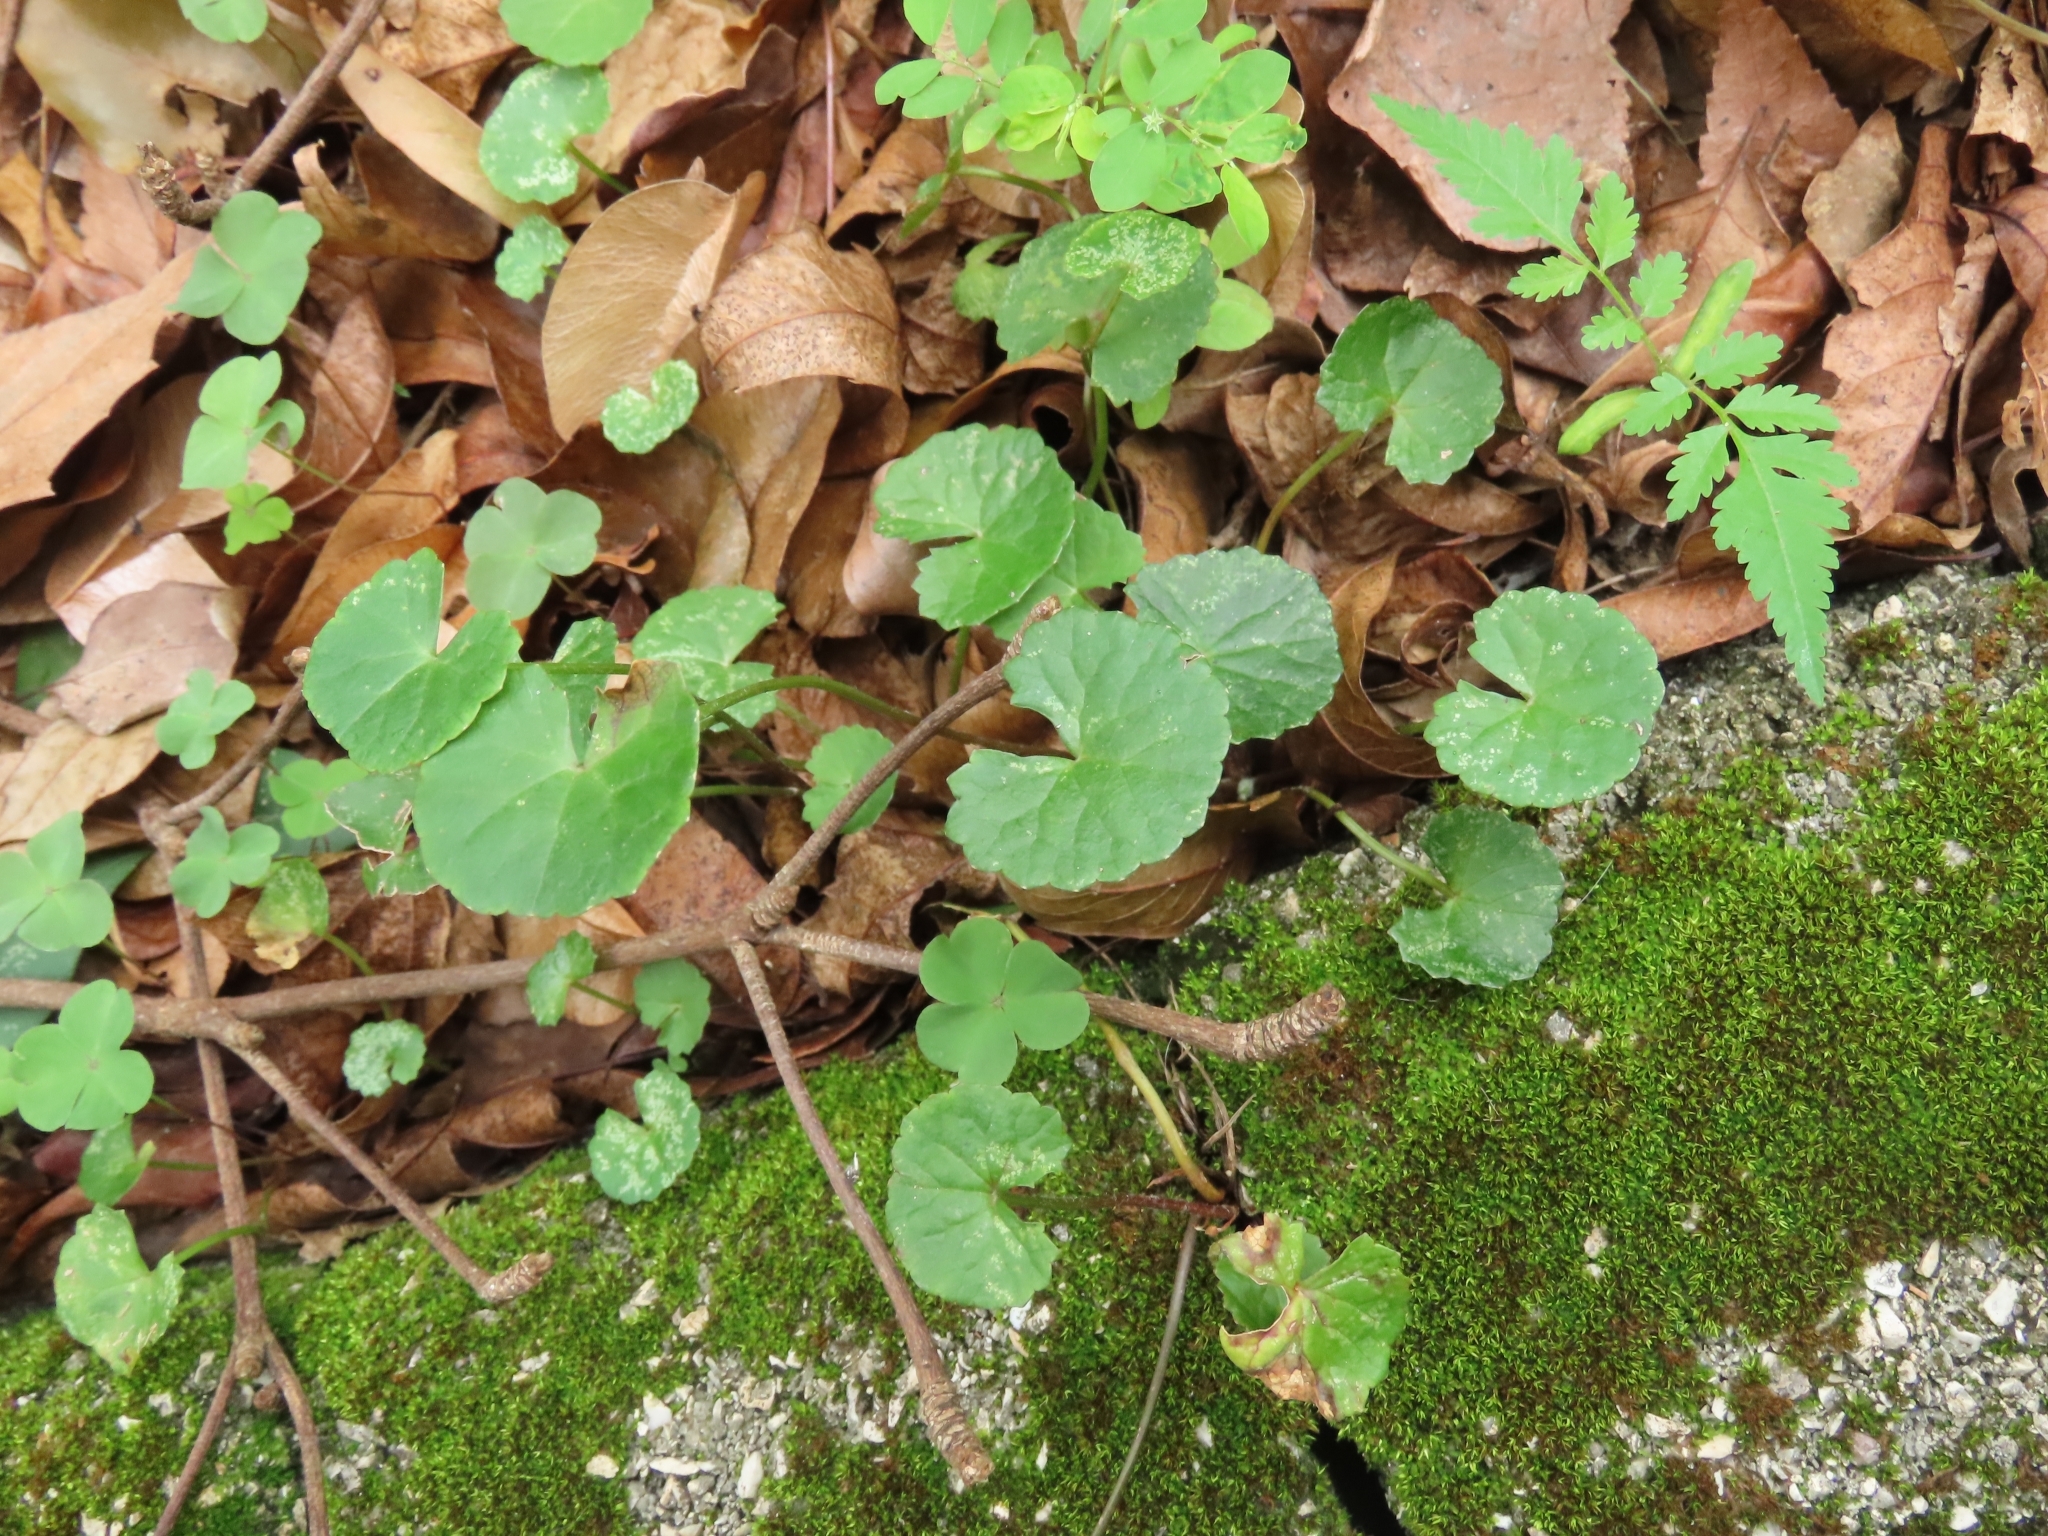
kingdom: Plantae
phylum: Tracheophyta
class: Magnoliopsida
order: Apiales
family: Apiaceae
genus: Centella
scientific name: Centella asiatica
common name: Spadeleaf
